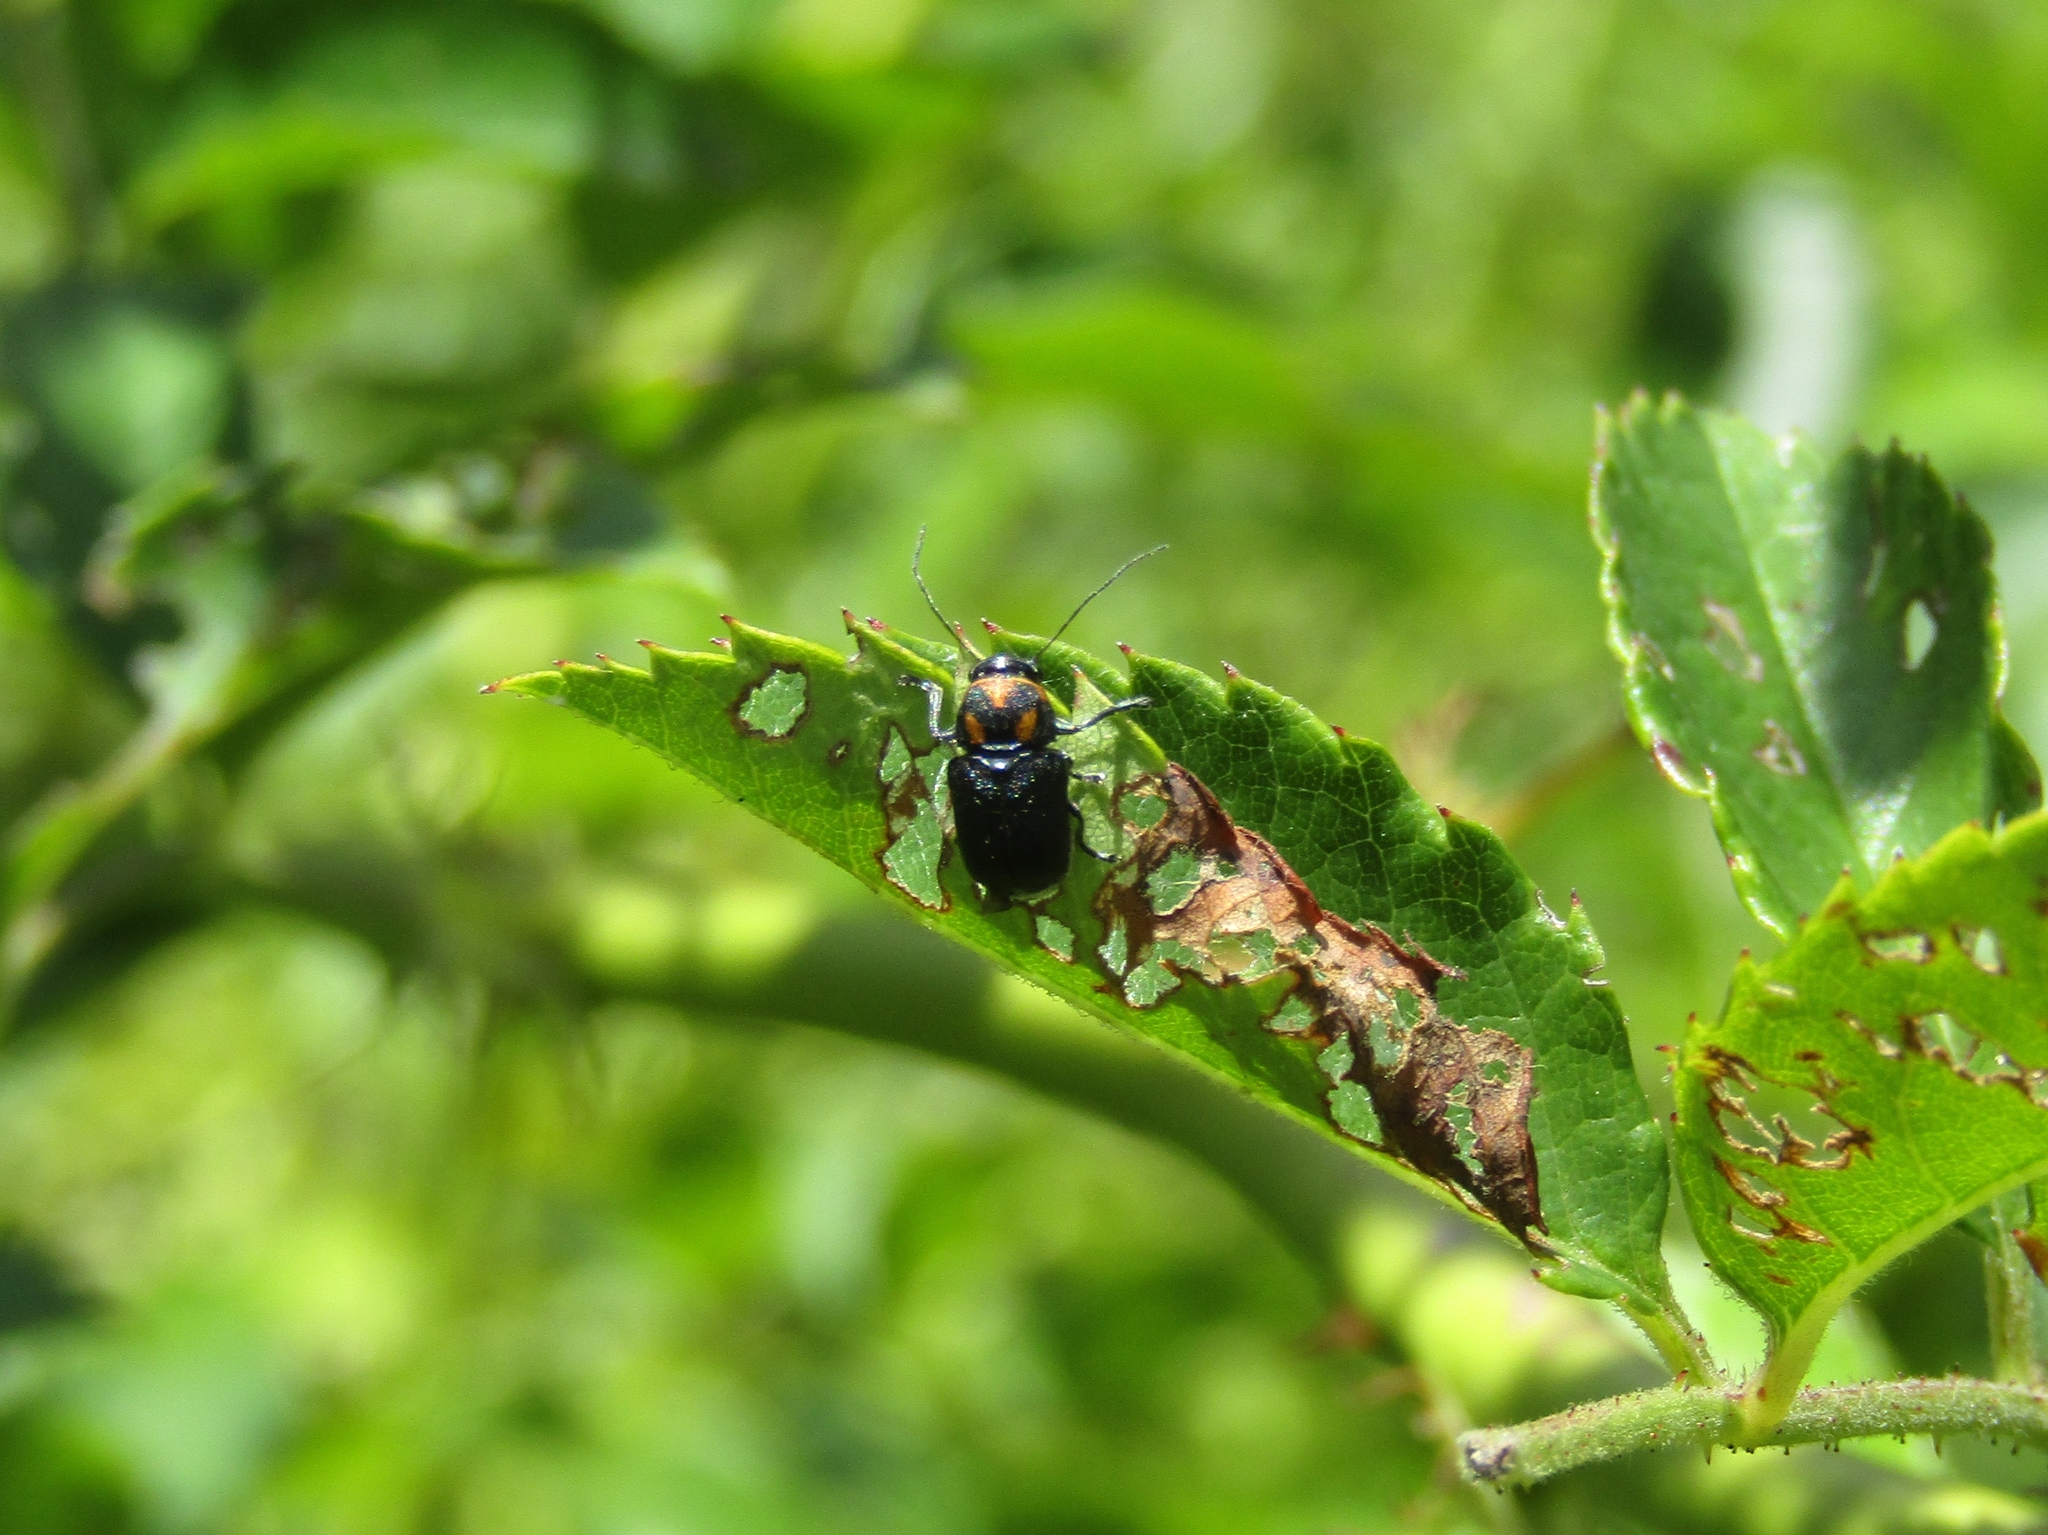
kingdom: Animalia
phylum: Arthropoda
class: Insecta
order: Coleoptera
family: Chrysomelidae
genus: Pachybrachis
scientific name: Pachybrachis trinotatus
